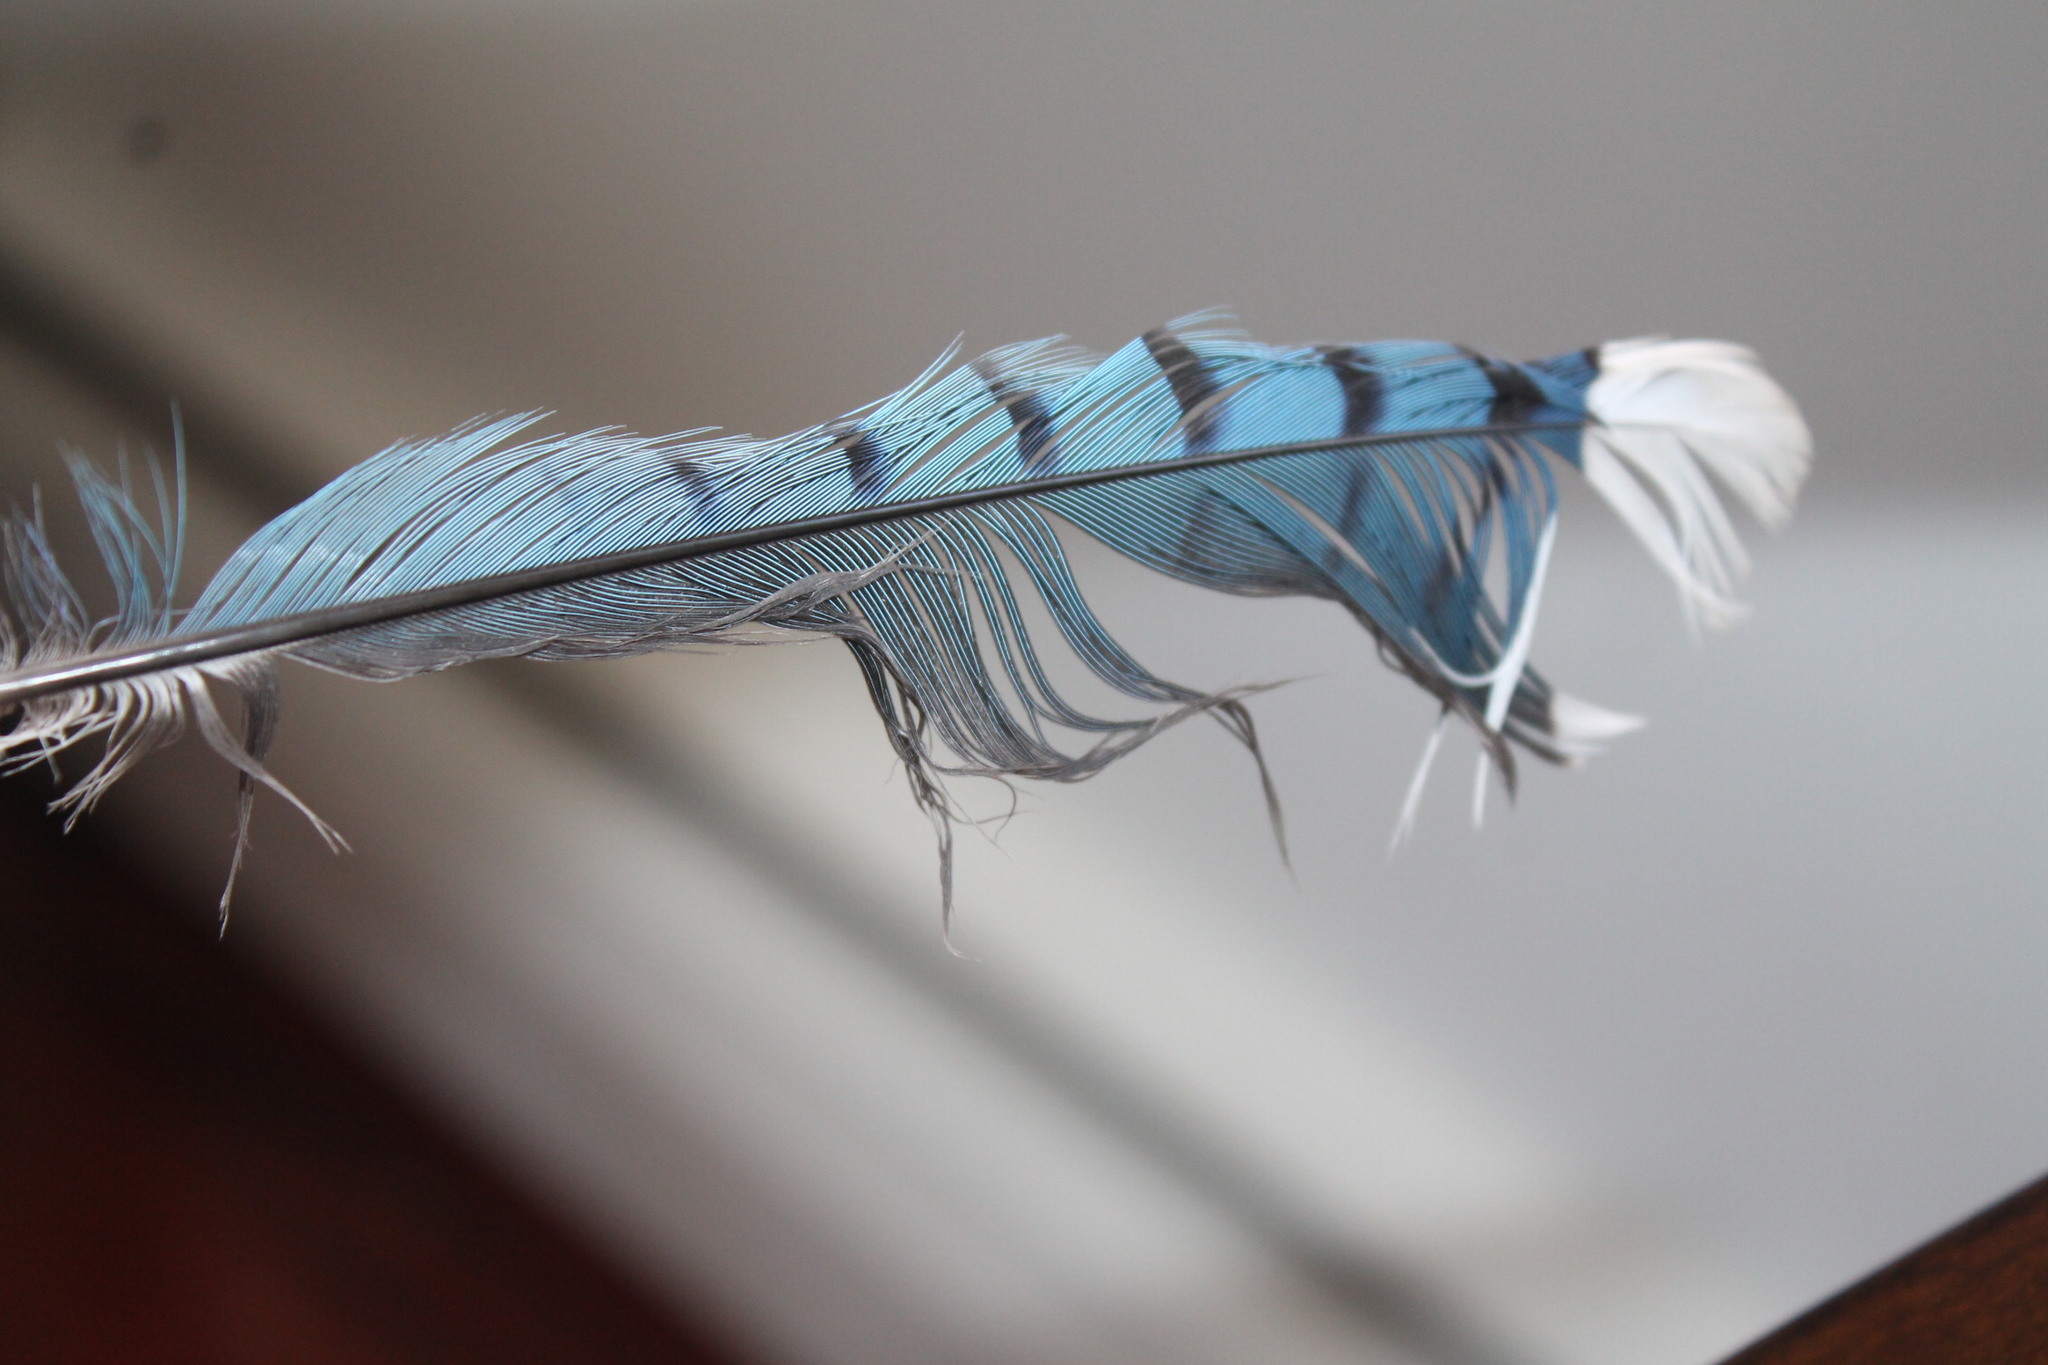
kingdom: Animalia
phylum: Chordata
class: Aves
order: Passeriformes
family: Corvidae
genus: Cyanocitta
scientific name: Cyanocitta cristata
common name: Blue jay
